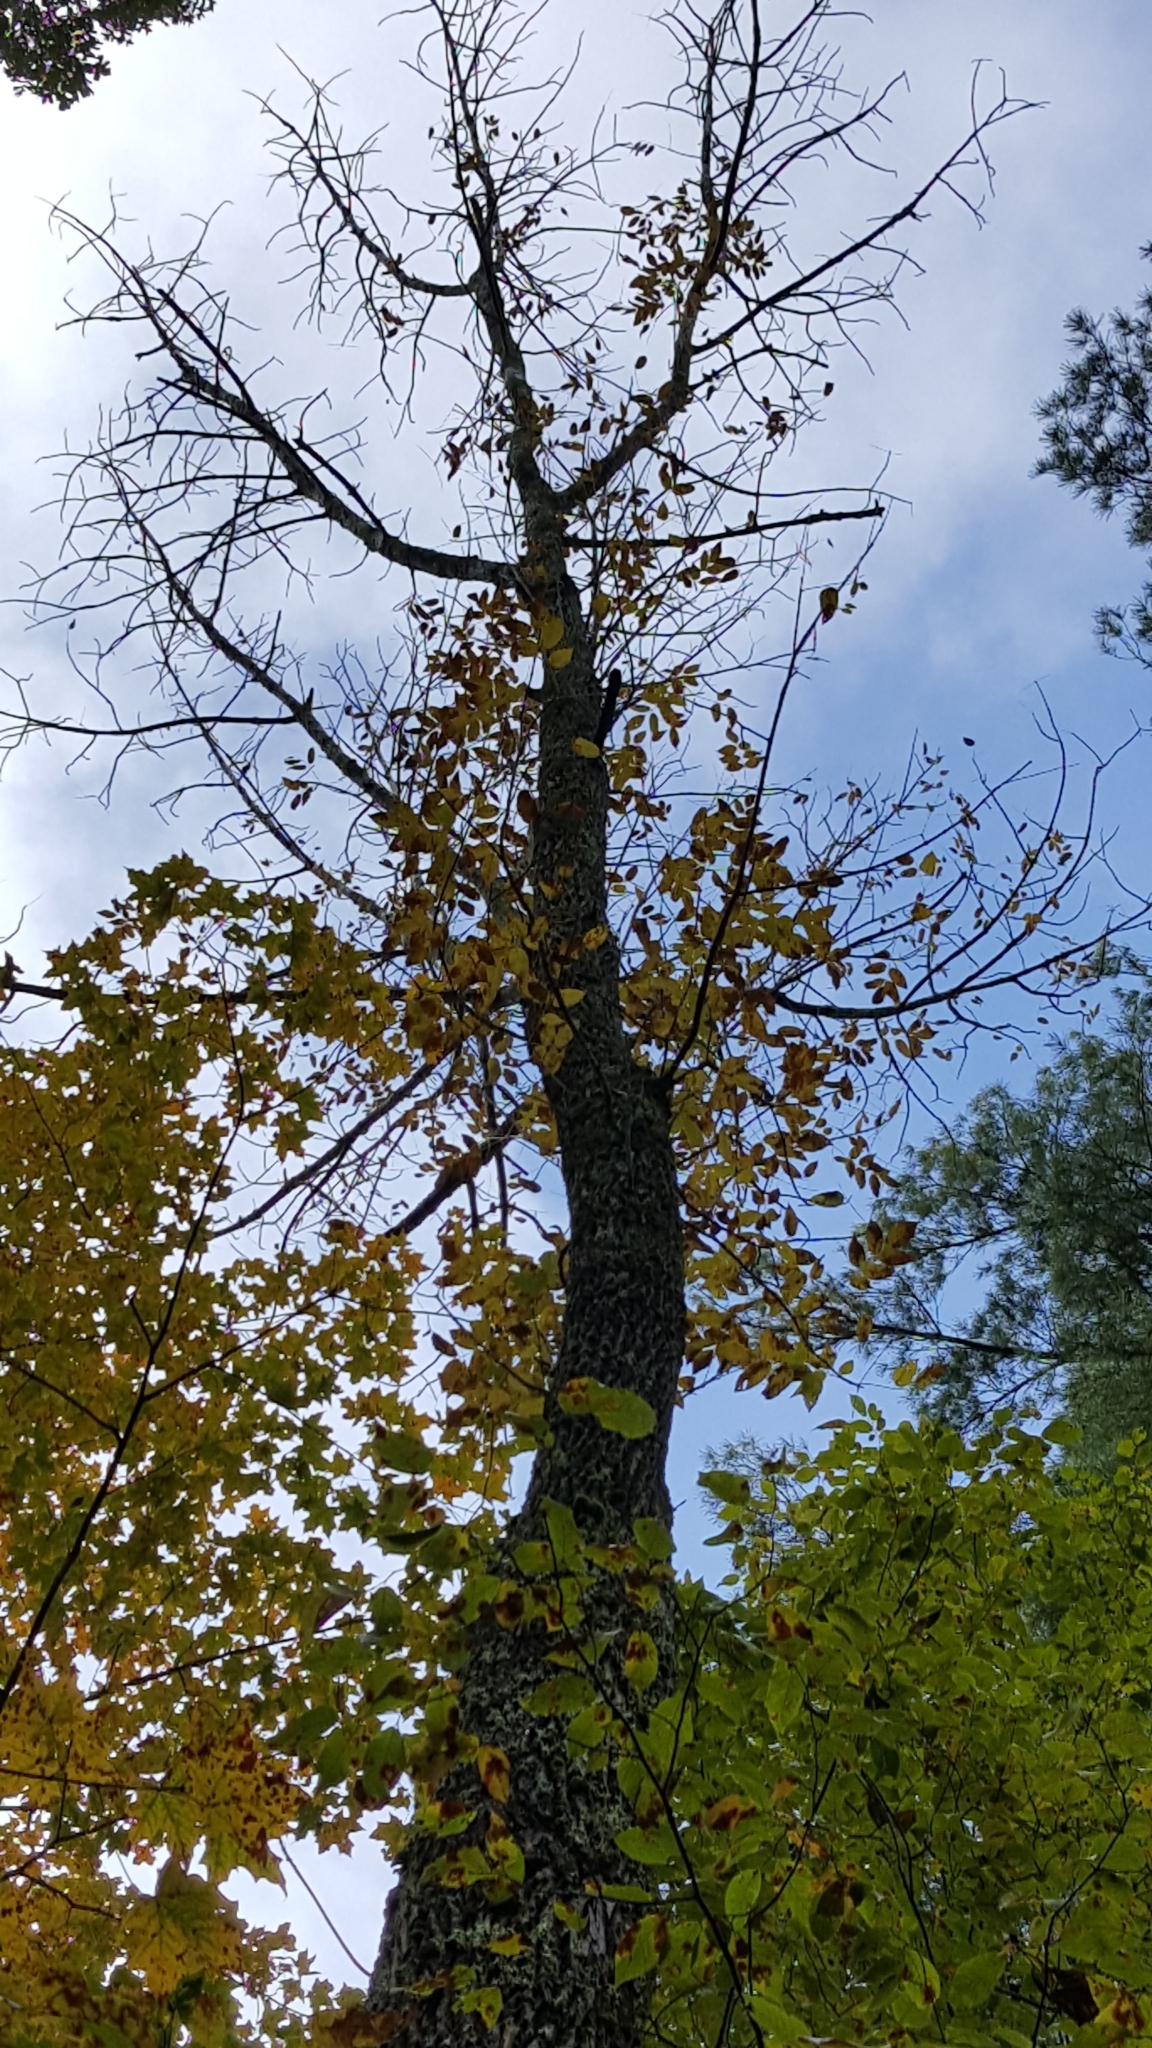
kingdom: Plantae
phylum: Tracheophyta
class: Magnoliopsida
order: Lamiales
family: Oleaceae
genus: Fraxinus
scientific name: Fraxinus americana
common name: White ash
